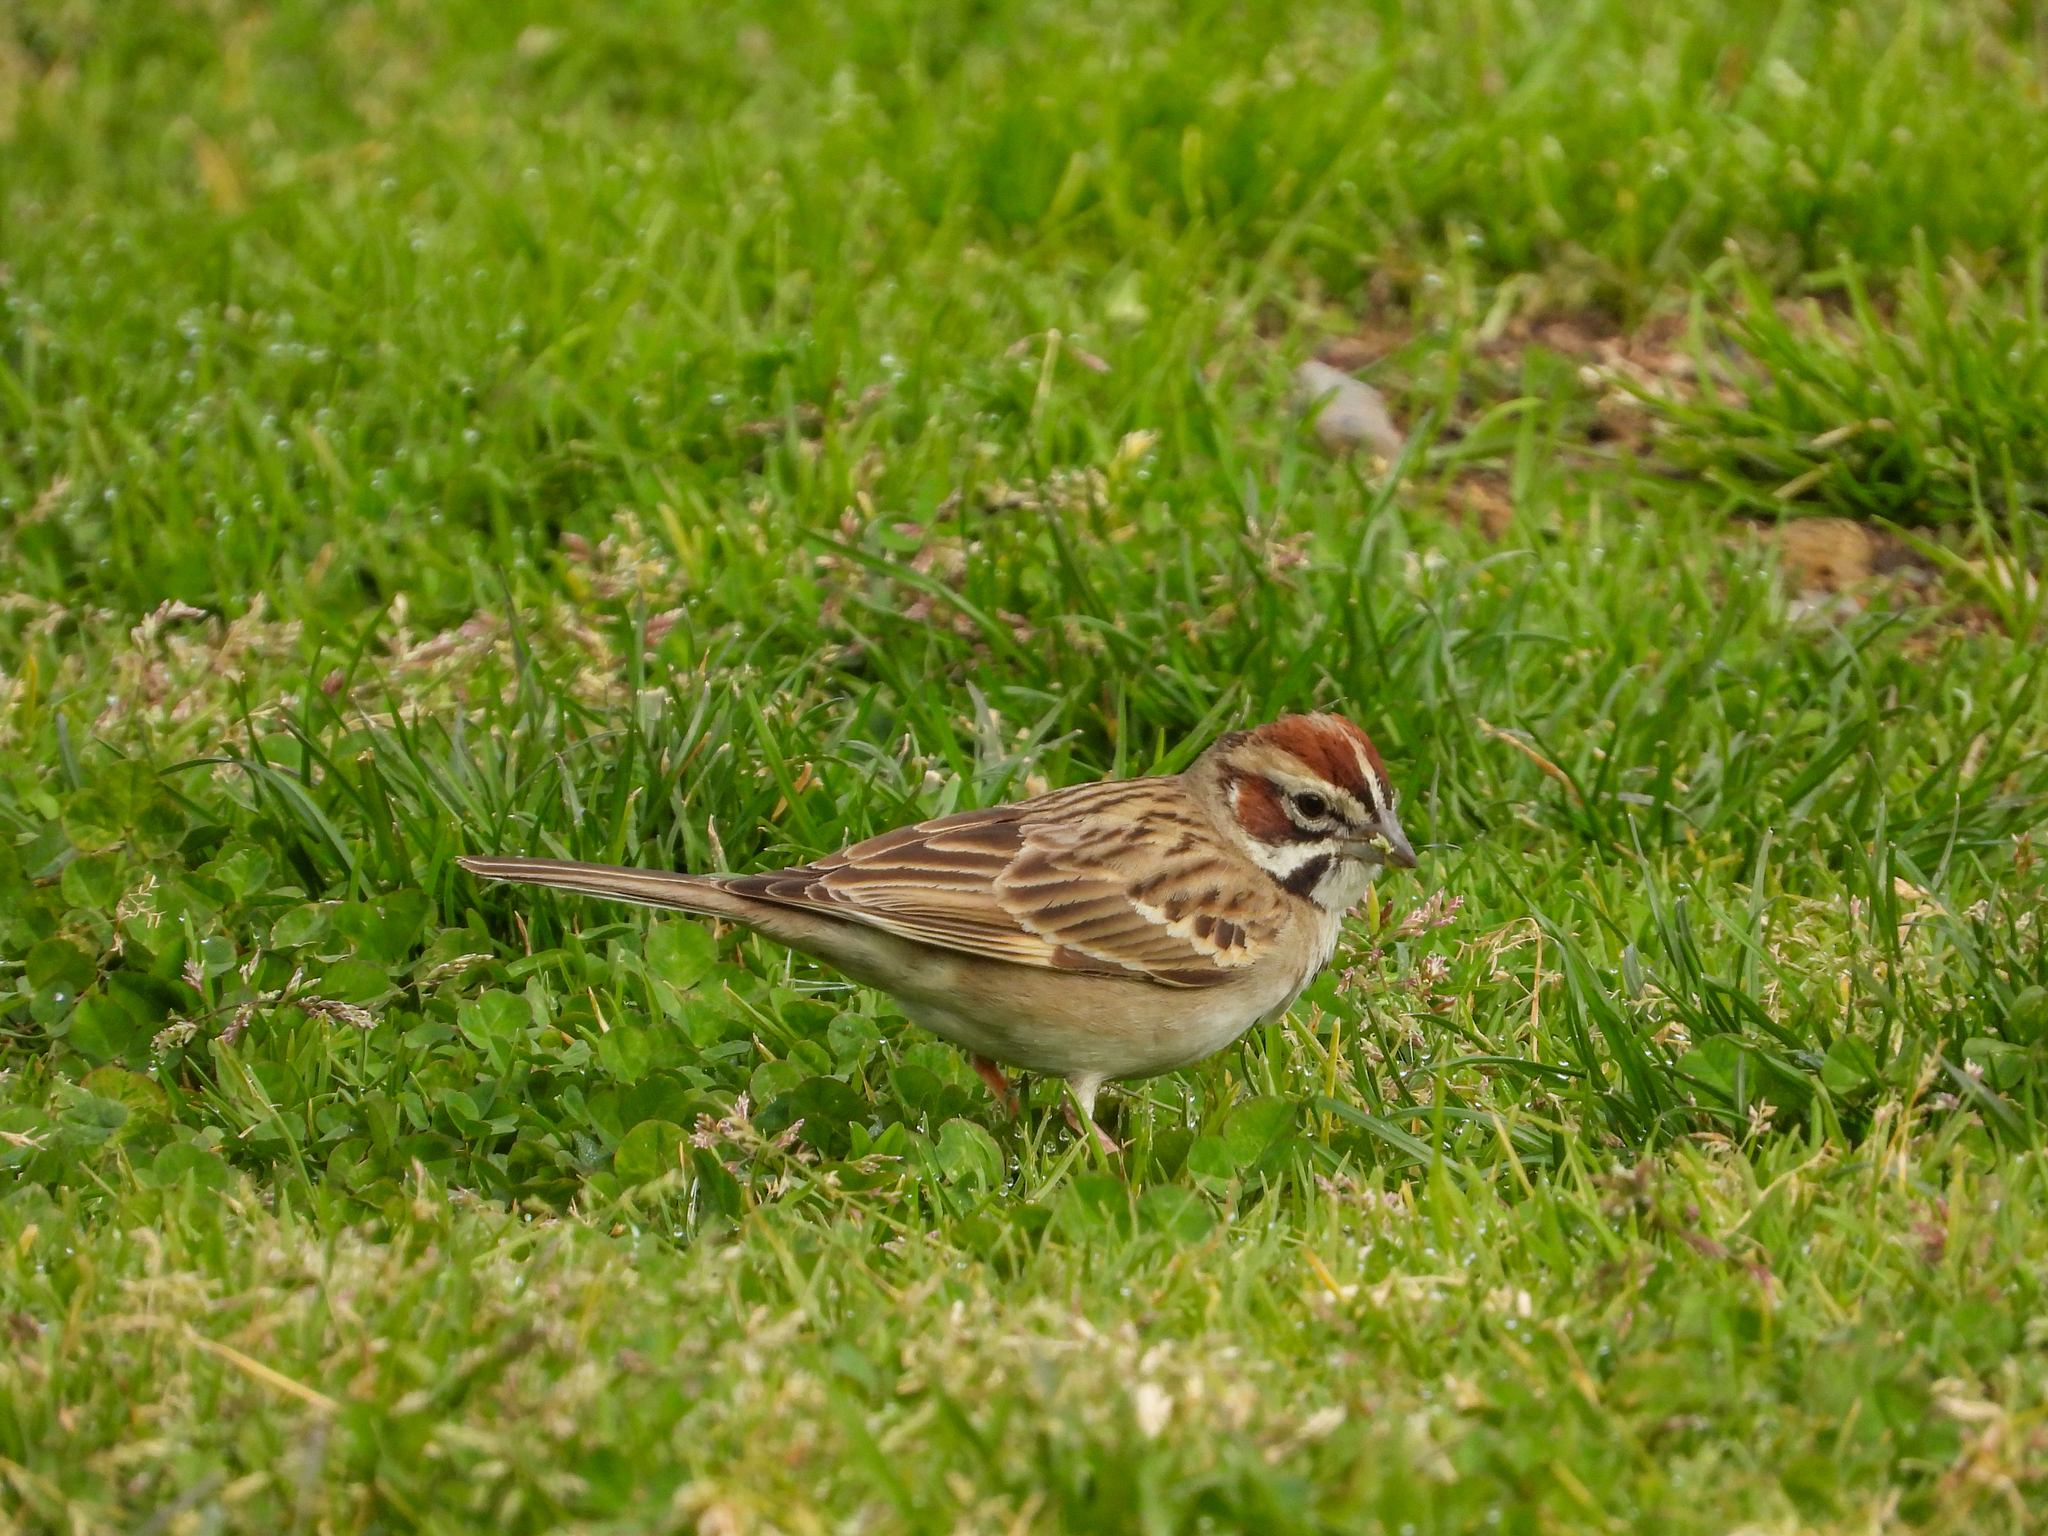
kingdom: Animalia
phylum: Chordata
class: Aves
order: Passeriformes
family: Passerellidae
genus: Chondestes
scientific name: Chondestes grammacus
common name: Lark sparrow
